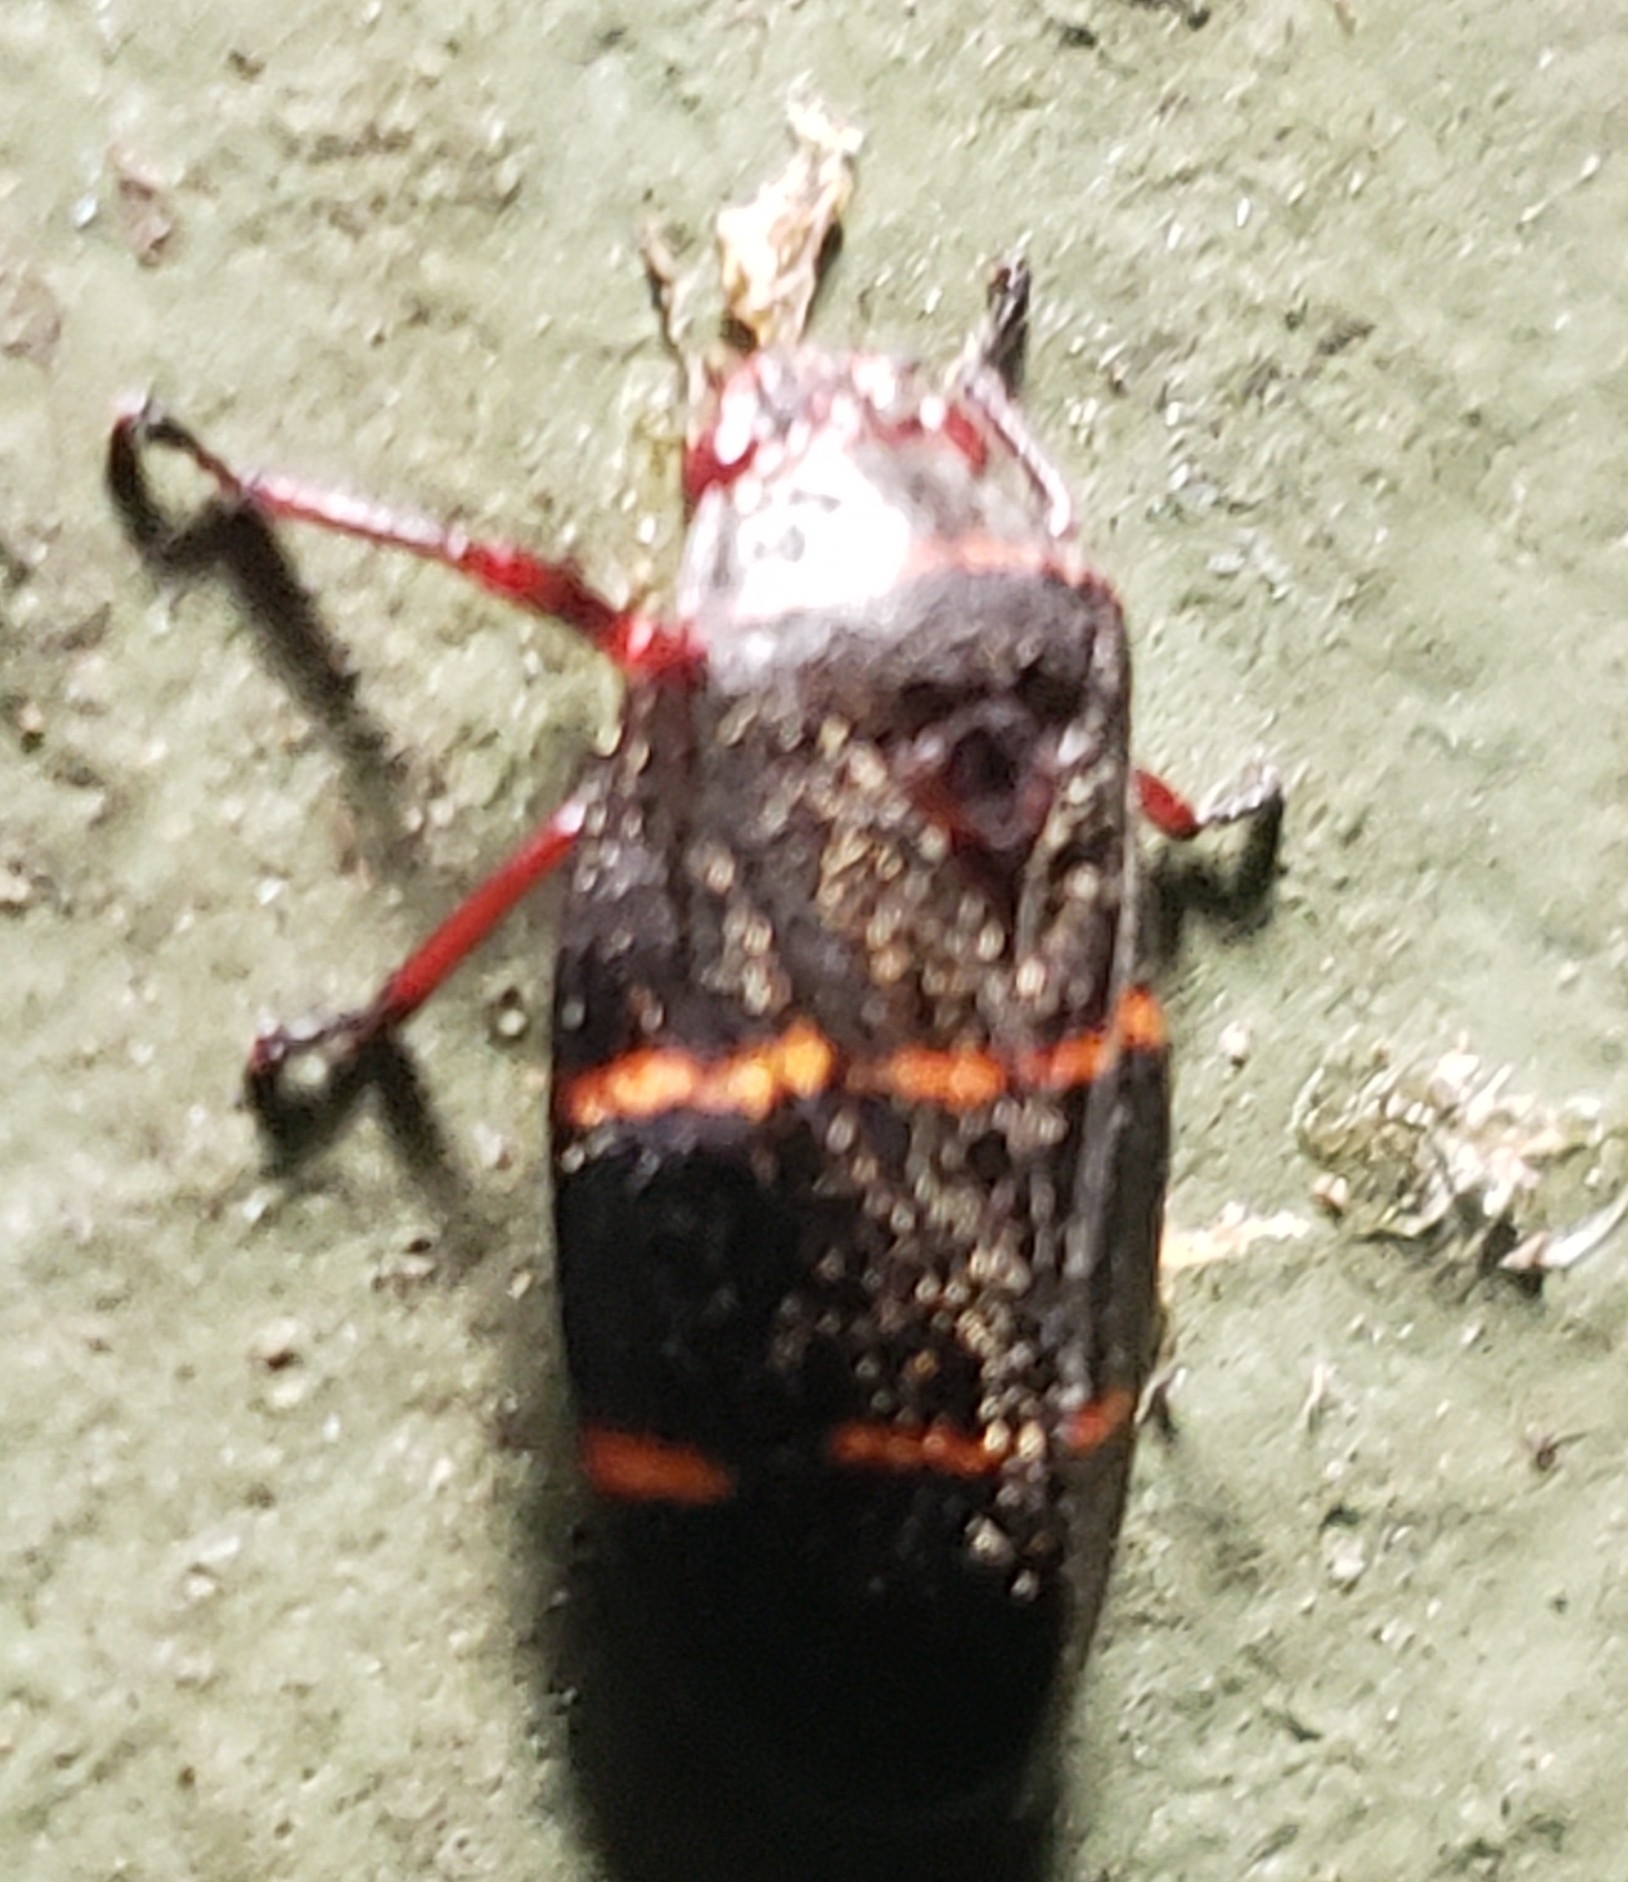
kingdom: Animalia
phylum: Arthropoda
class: Insecta
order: Hemiptera
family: Cercopidae
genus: Prosapia
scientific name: Prosapia bicincta
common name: Twolined spittlebug
